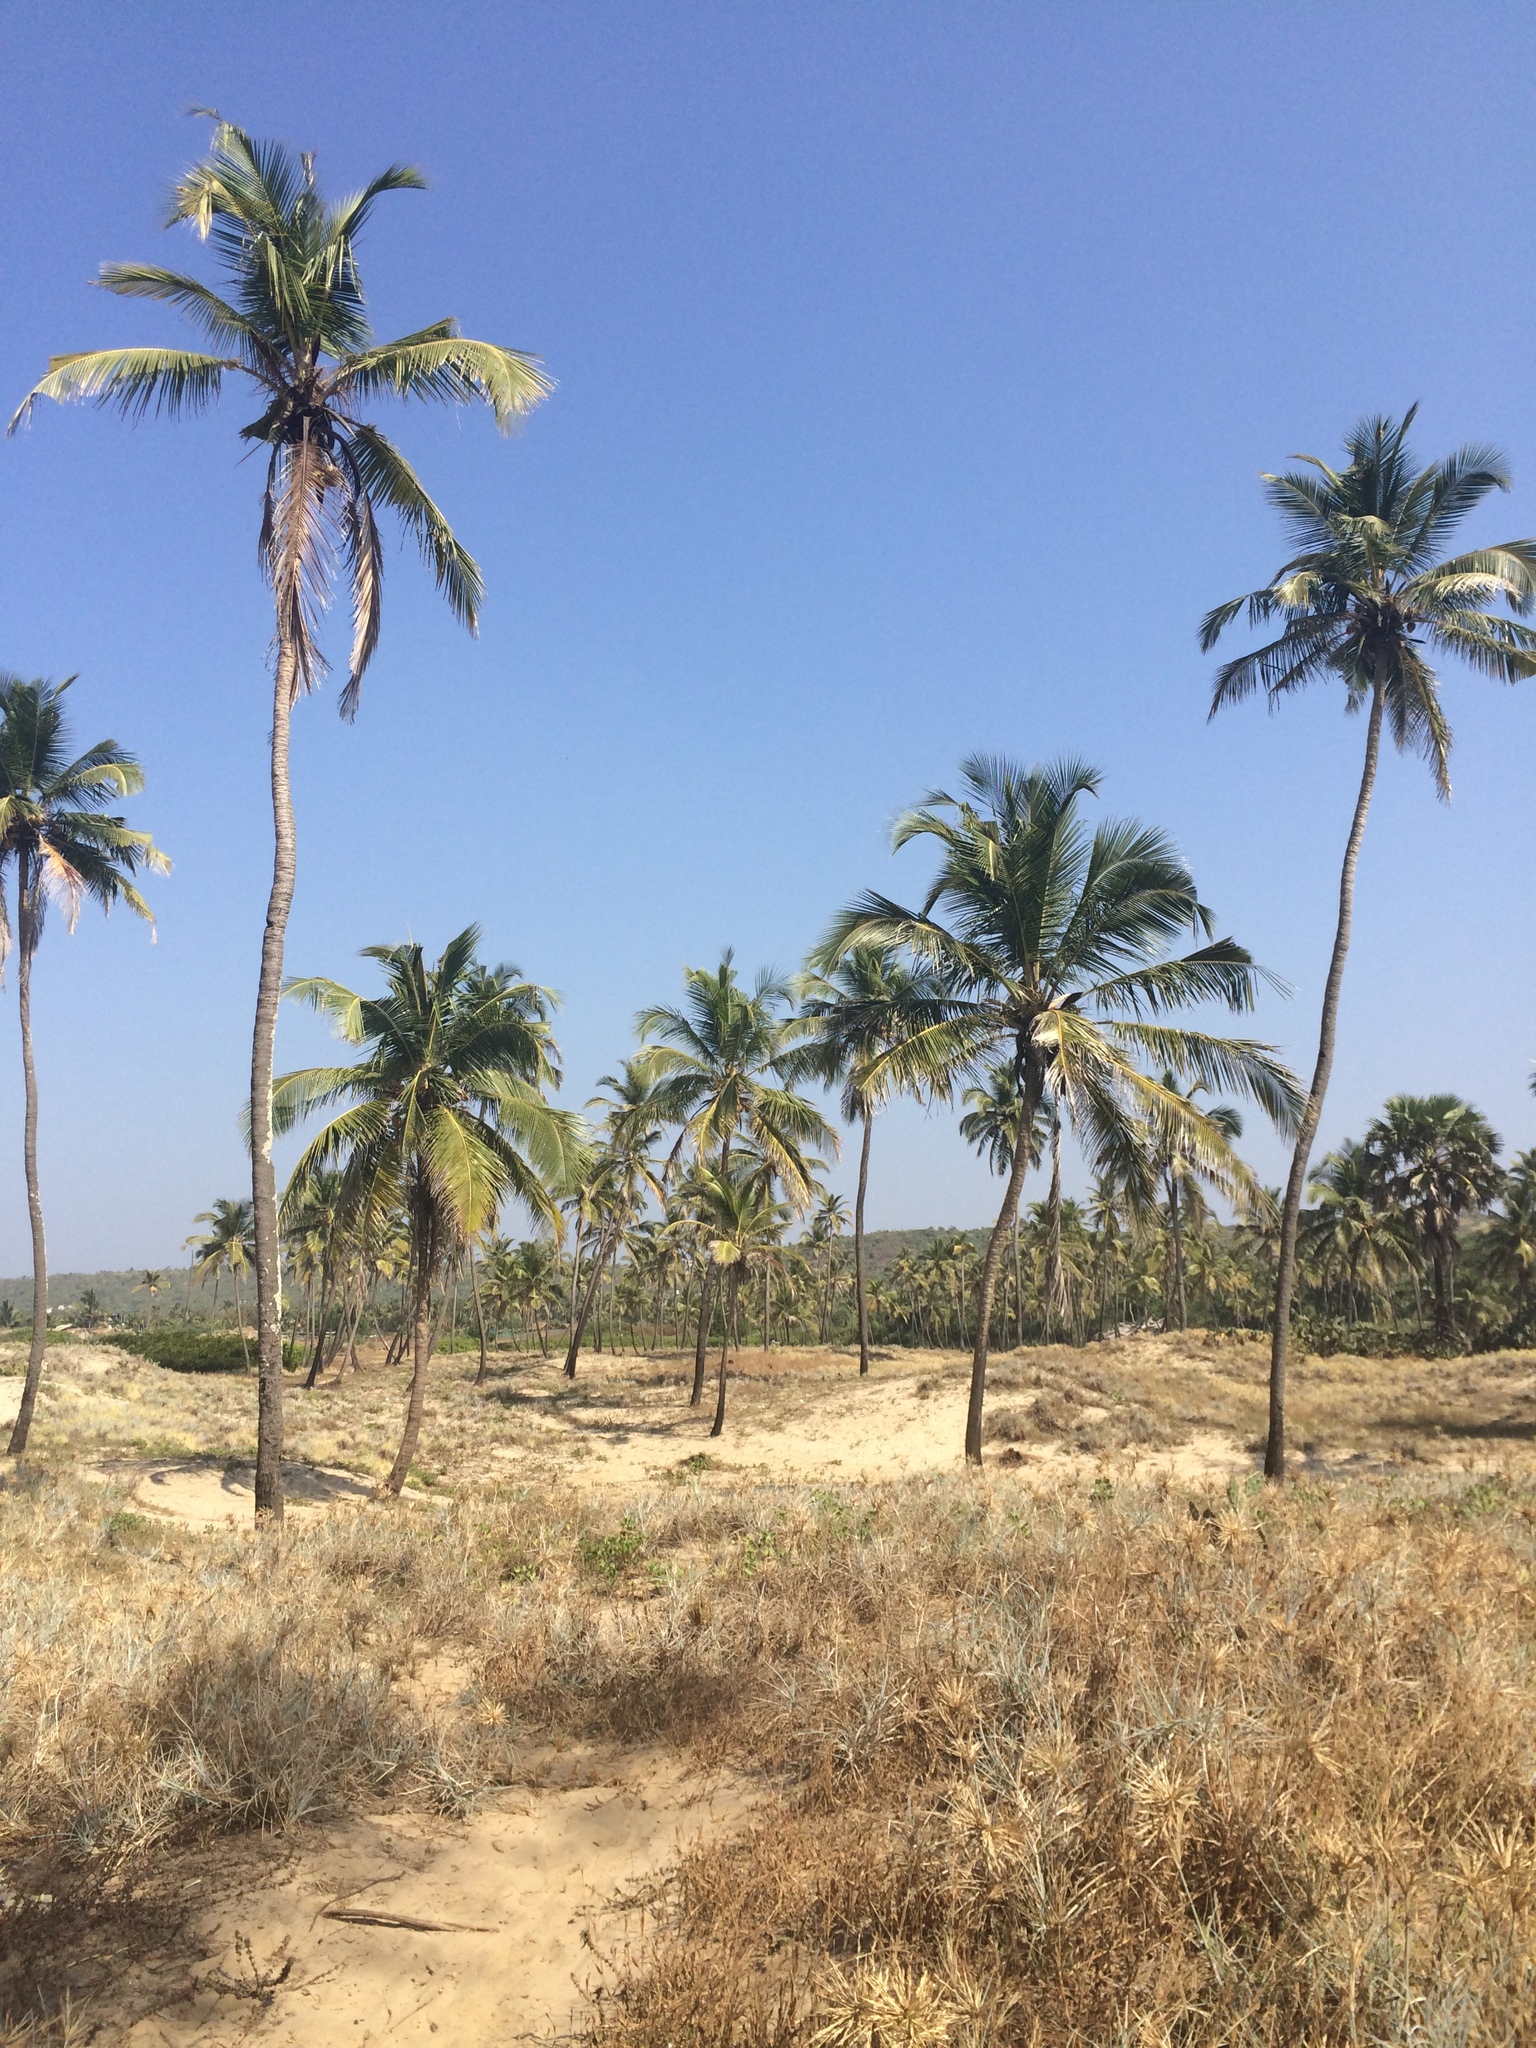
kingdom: Plantae
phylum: Tracheophyta
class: Liliopsida
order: Arecales
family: Arecaceae
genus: Cocos
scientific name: Cocos nucifera
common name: Coconut palm
